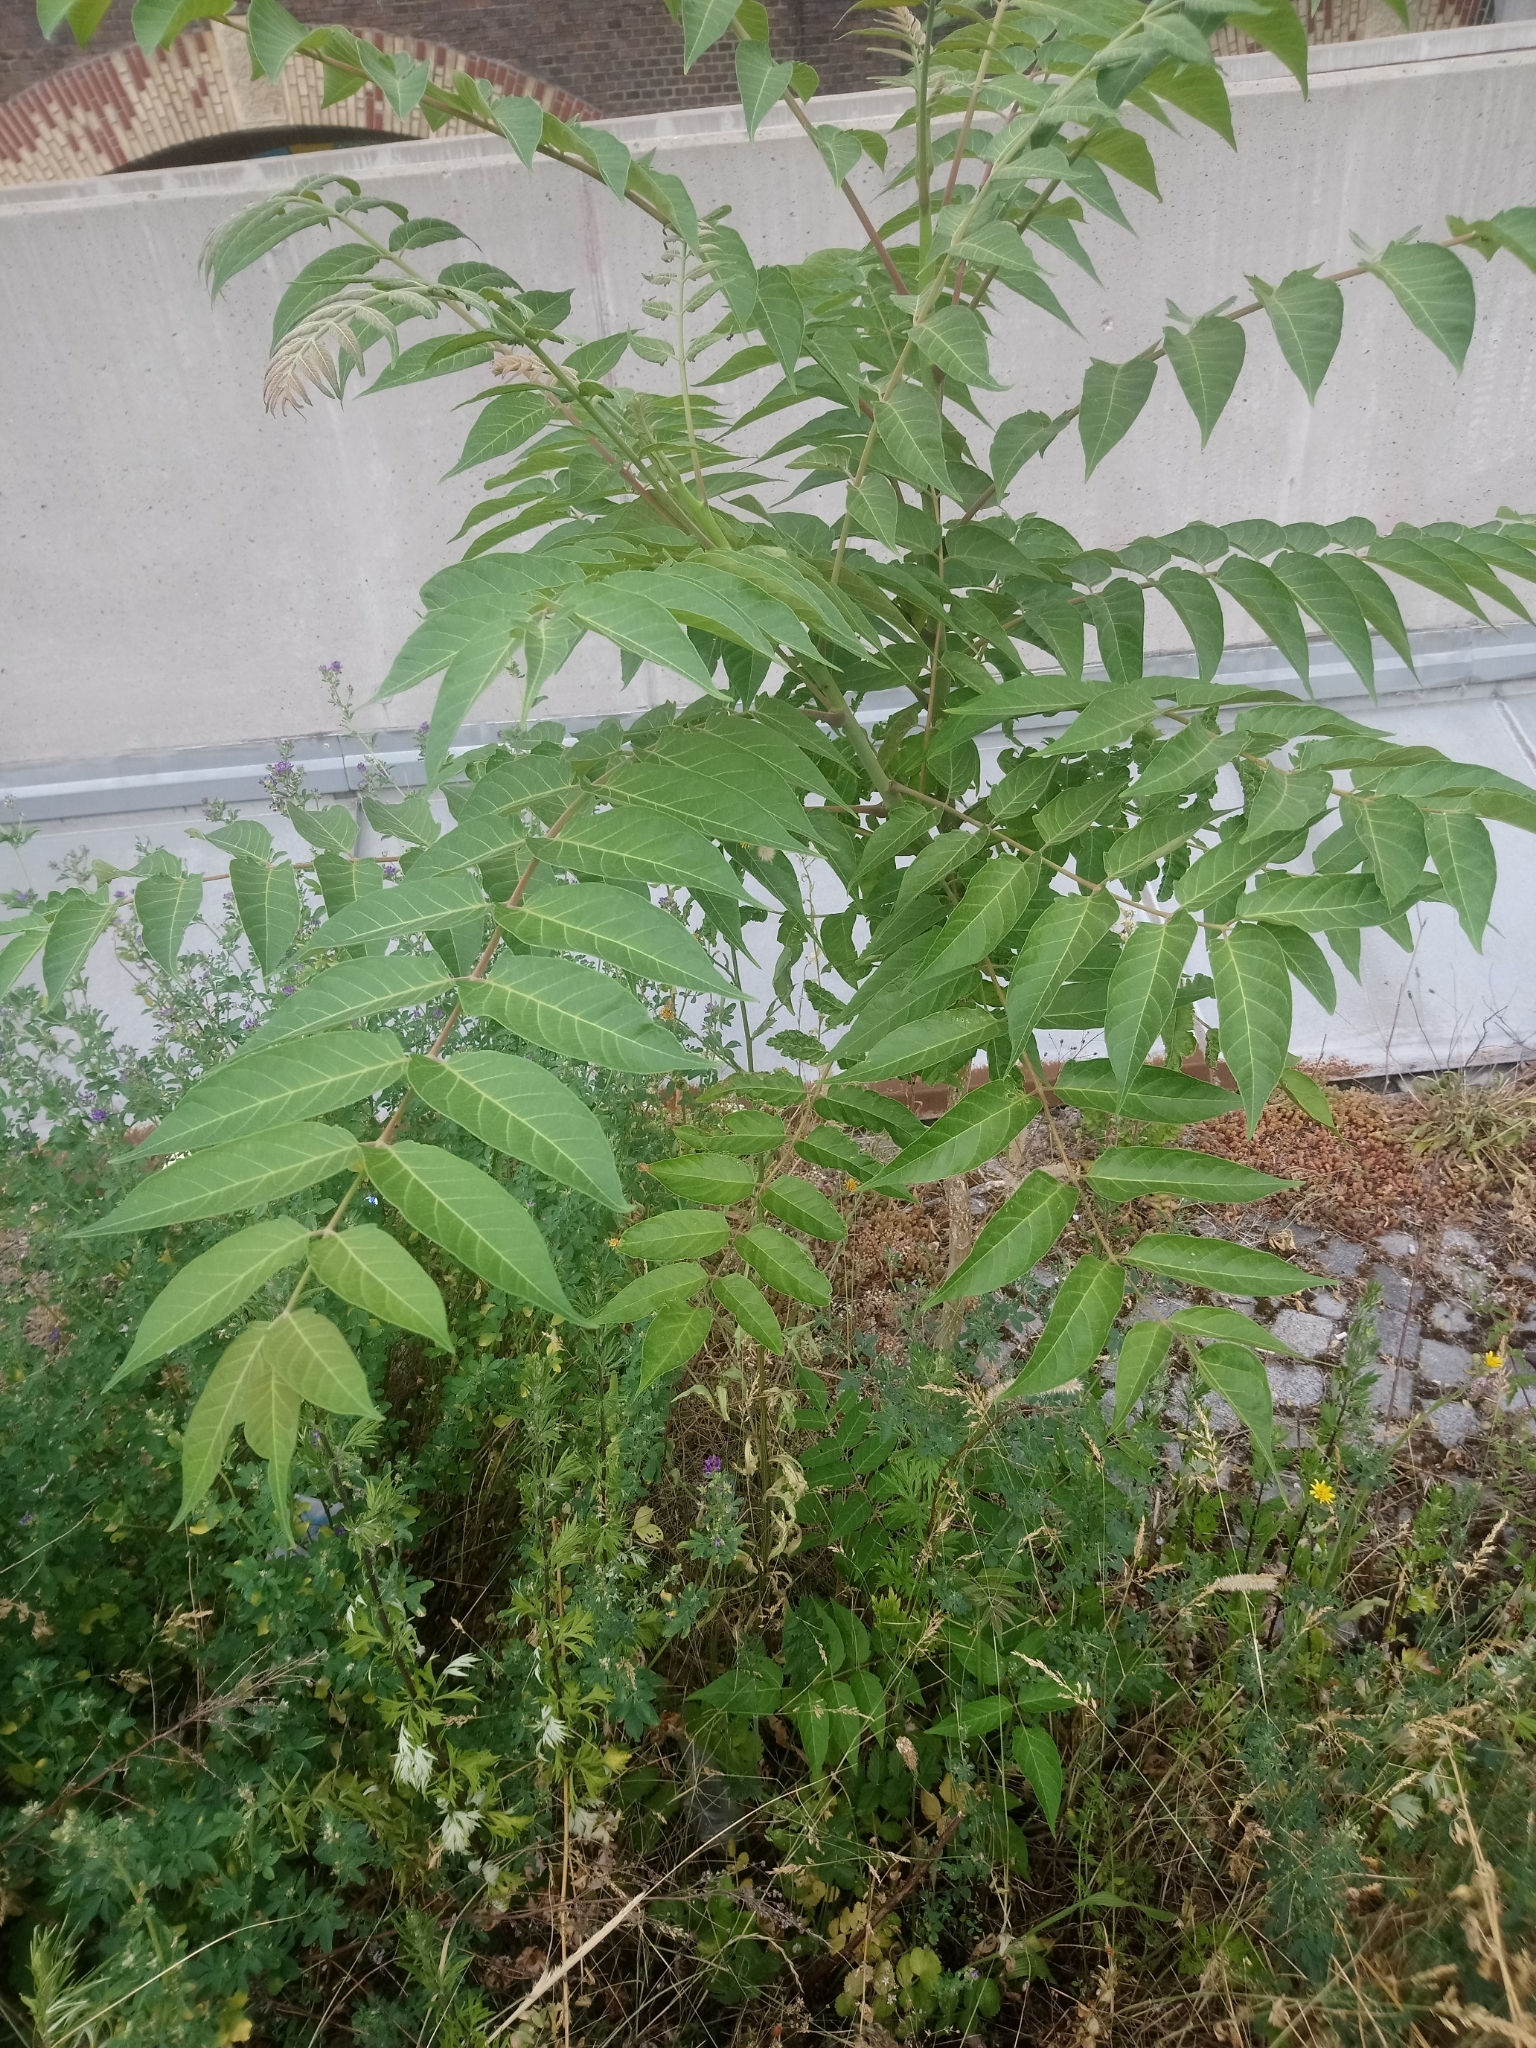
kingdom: Plantae
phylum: Tracheophyta
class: Magnoliopsida
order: Sapindales
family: Simaroubaceae
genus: Ailanthus
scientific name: Ailanthus altissima
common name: Tree-of-heaven
